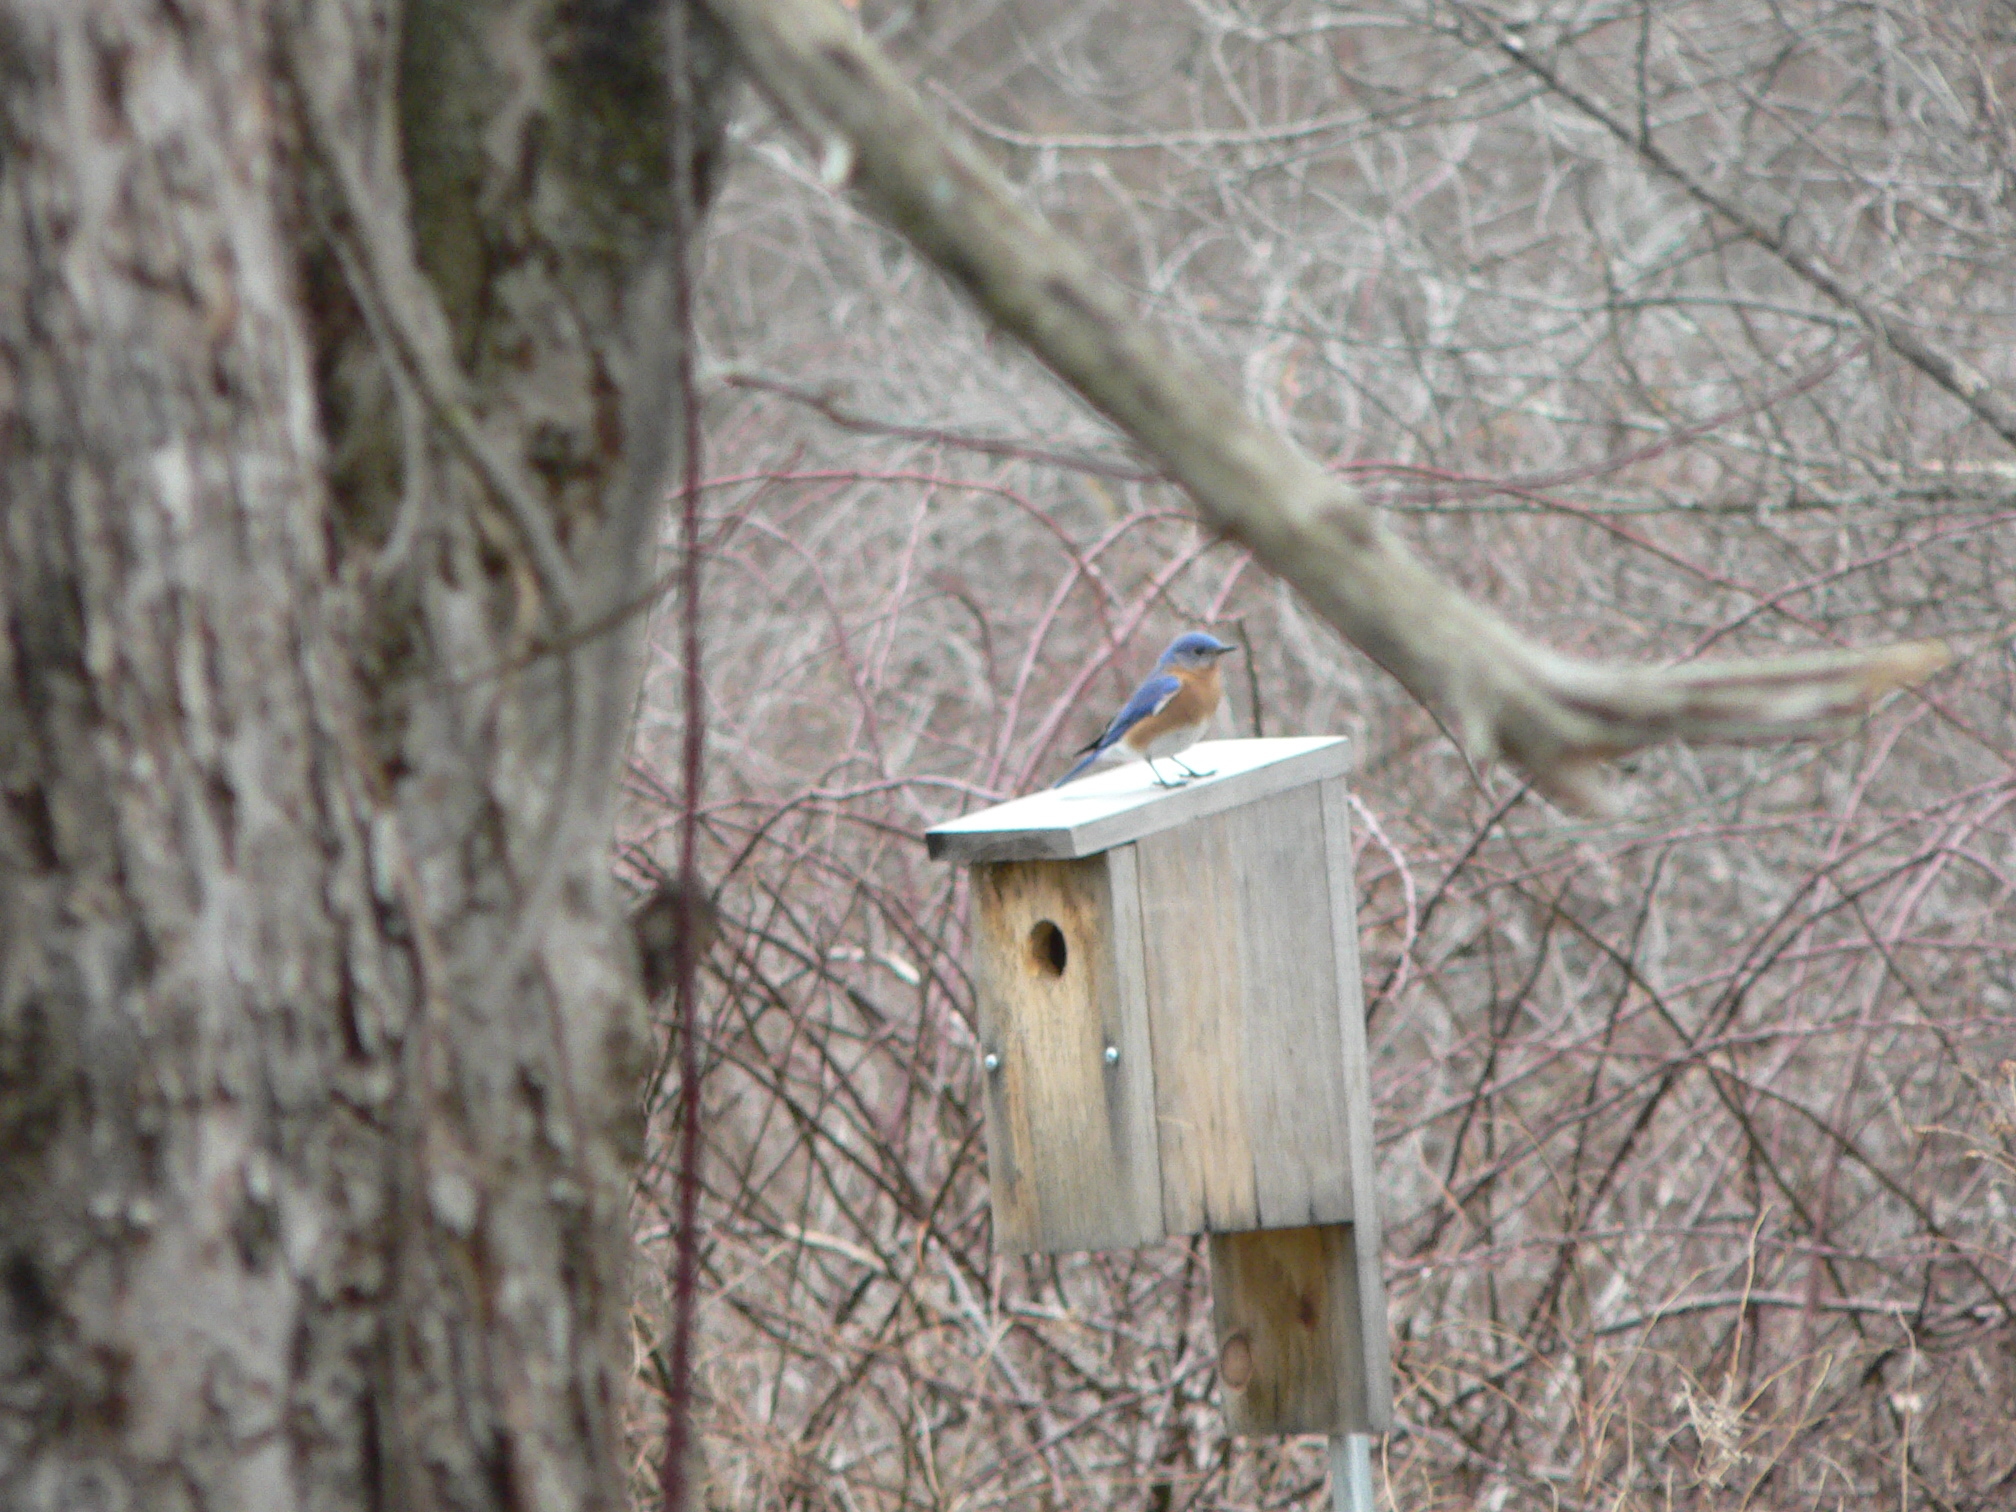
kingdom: Animalia
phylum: Chordata
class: Aves
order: Passeriformes
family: Turdidae
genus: Sialia
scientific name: Sialia sialis
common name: Eastern bluebird
